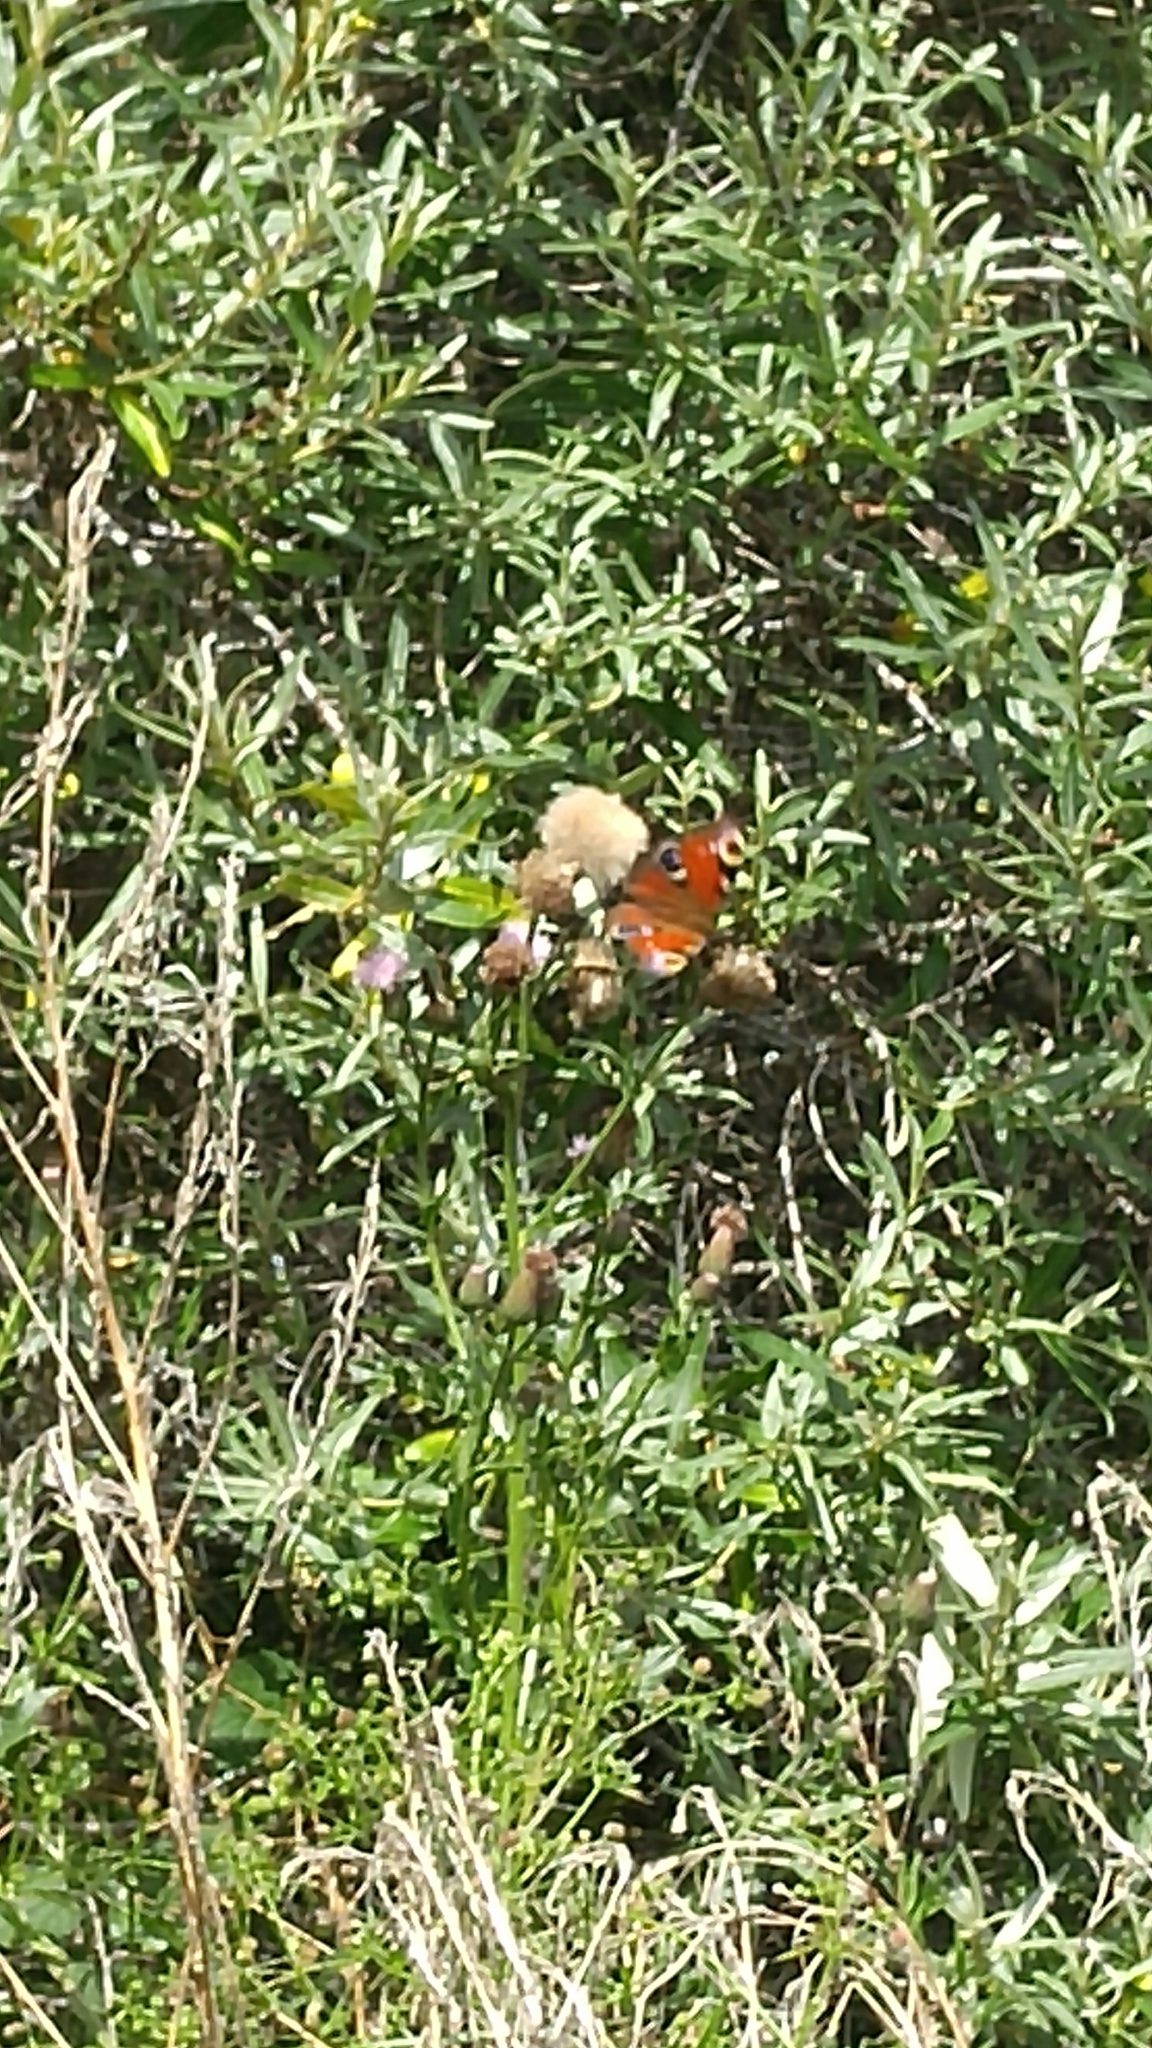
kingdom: Animalia
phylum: Arthropoda
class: Insecta
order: Lepidoptera
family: Nymphalidae
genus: Aglais
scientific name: Aglais io
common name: Peacock
